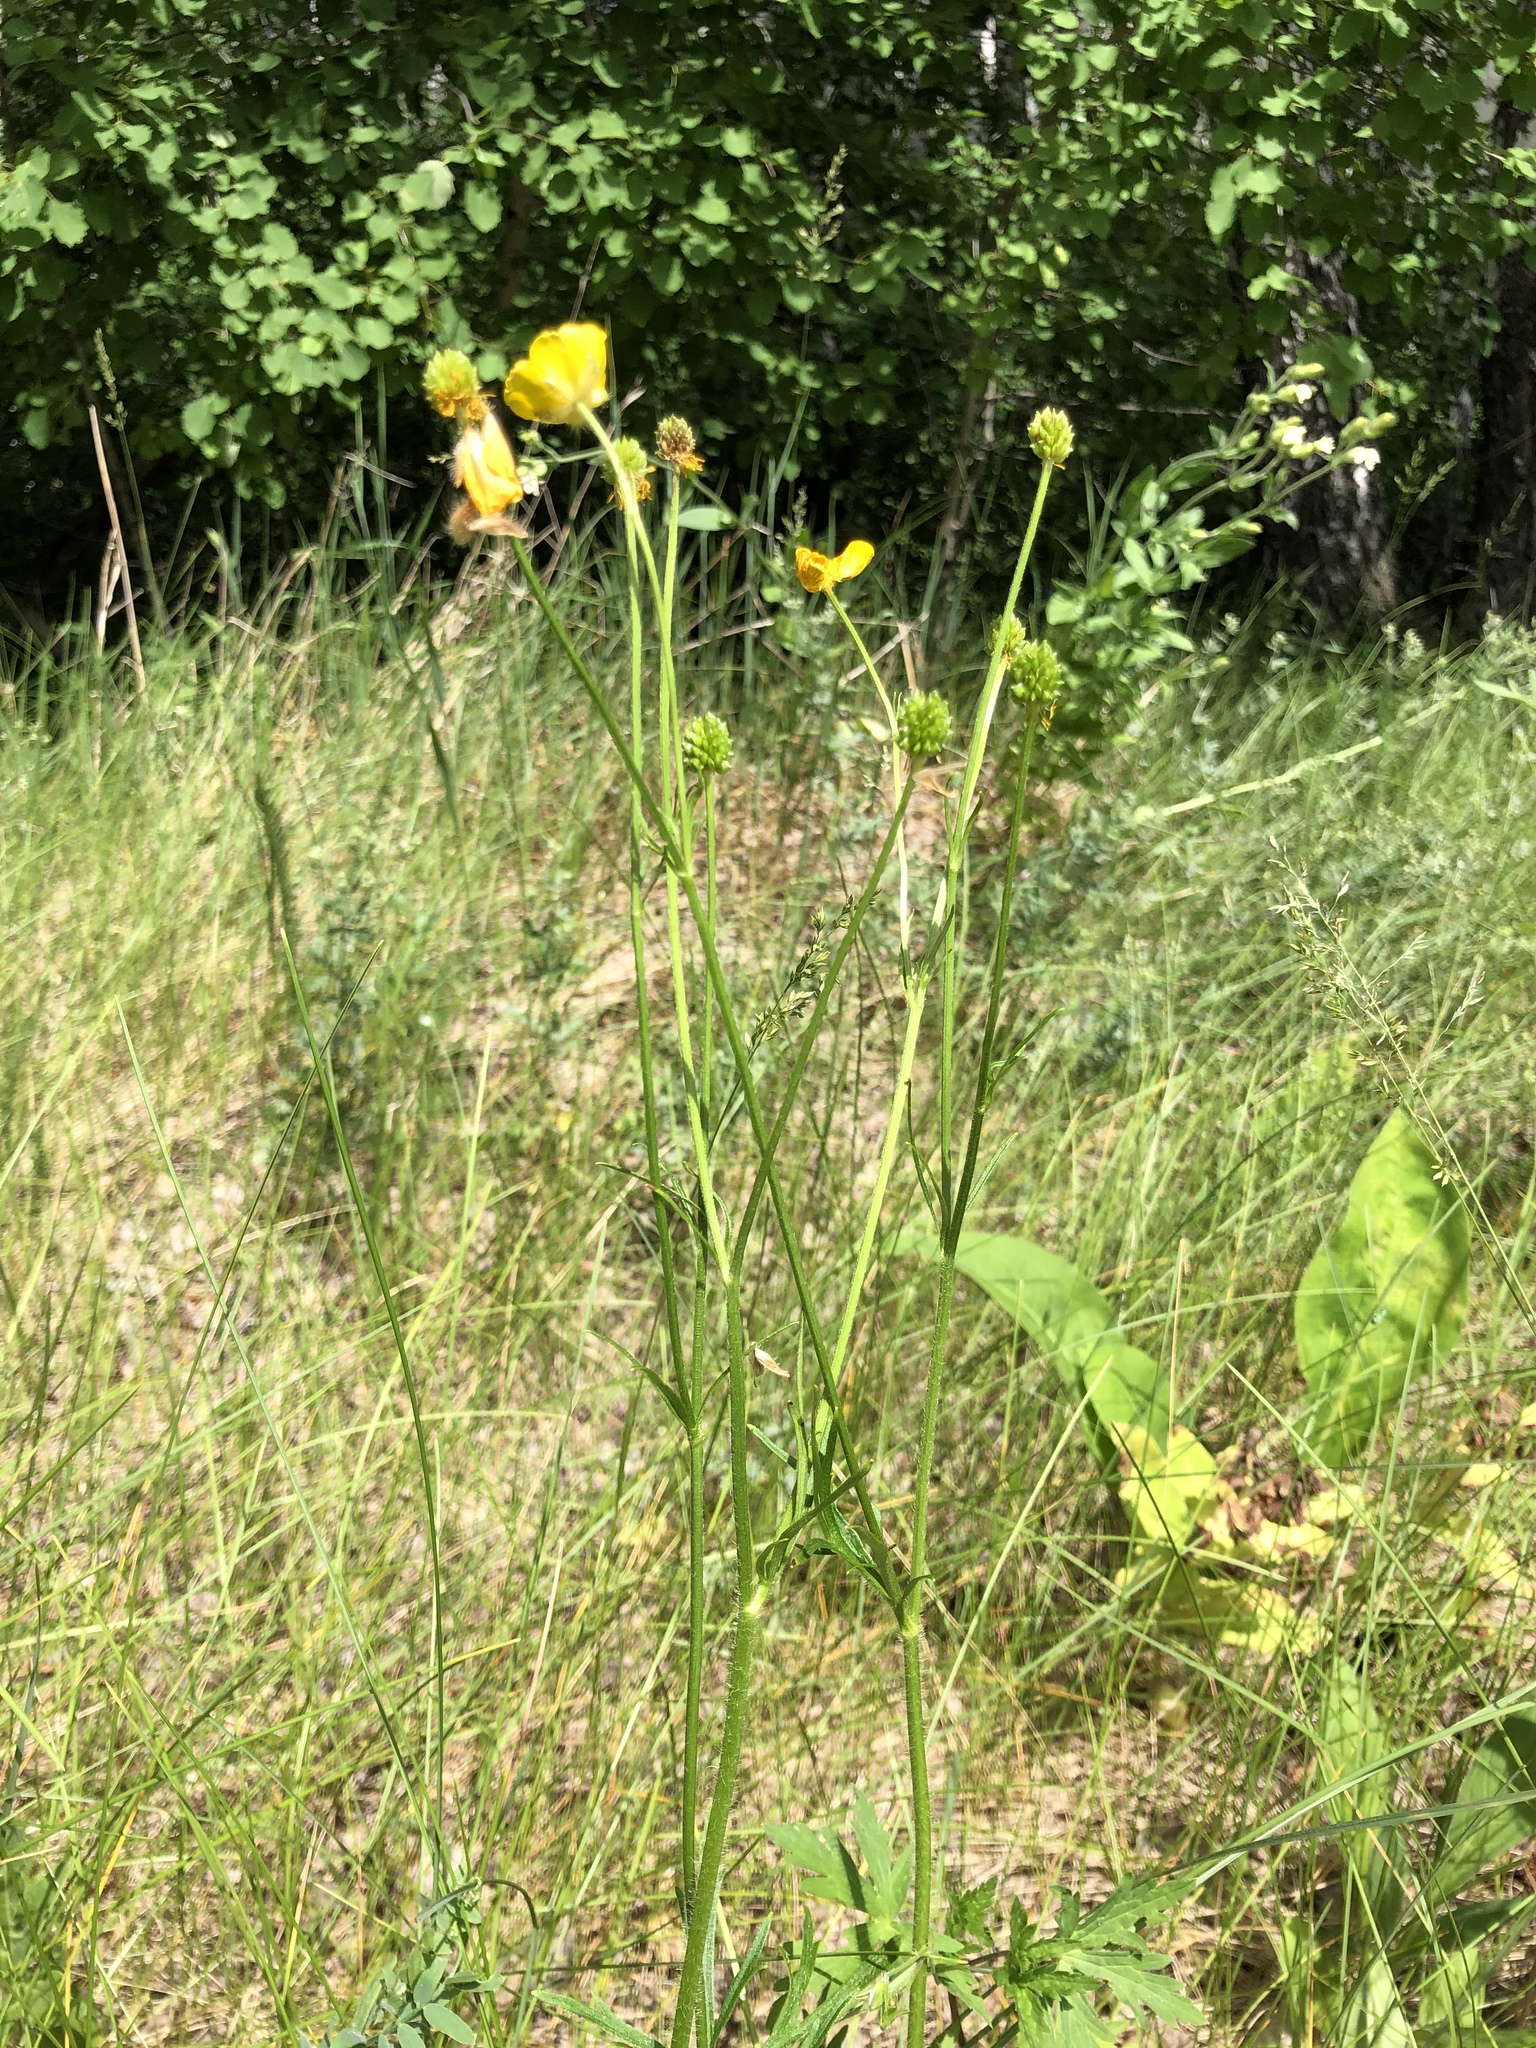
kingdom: Plantae
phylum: Tracheophyta
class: Magnoliopsida
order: Ranunculales
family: Ranunculaceae
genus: Ranunculus
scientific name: Ranunculus polyanthemos
